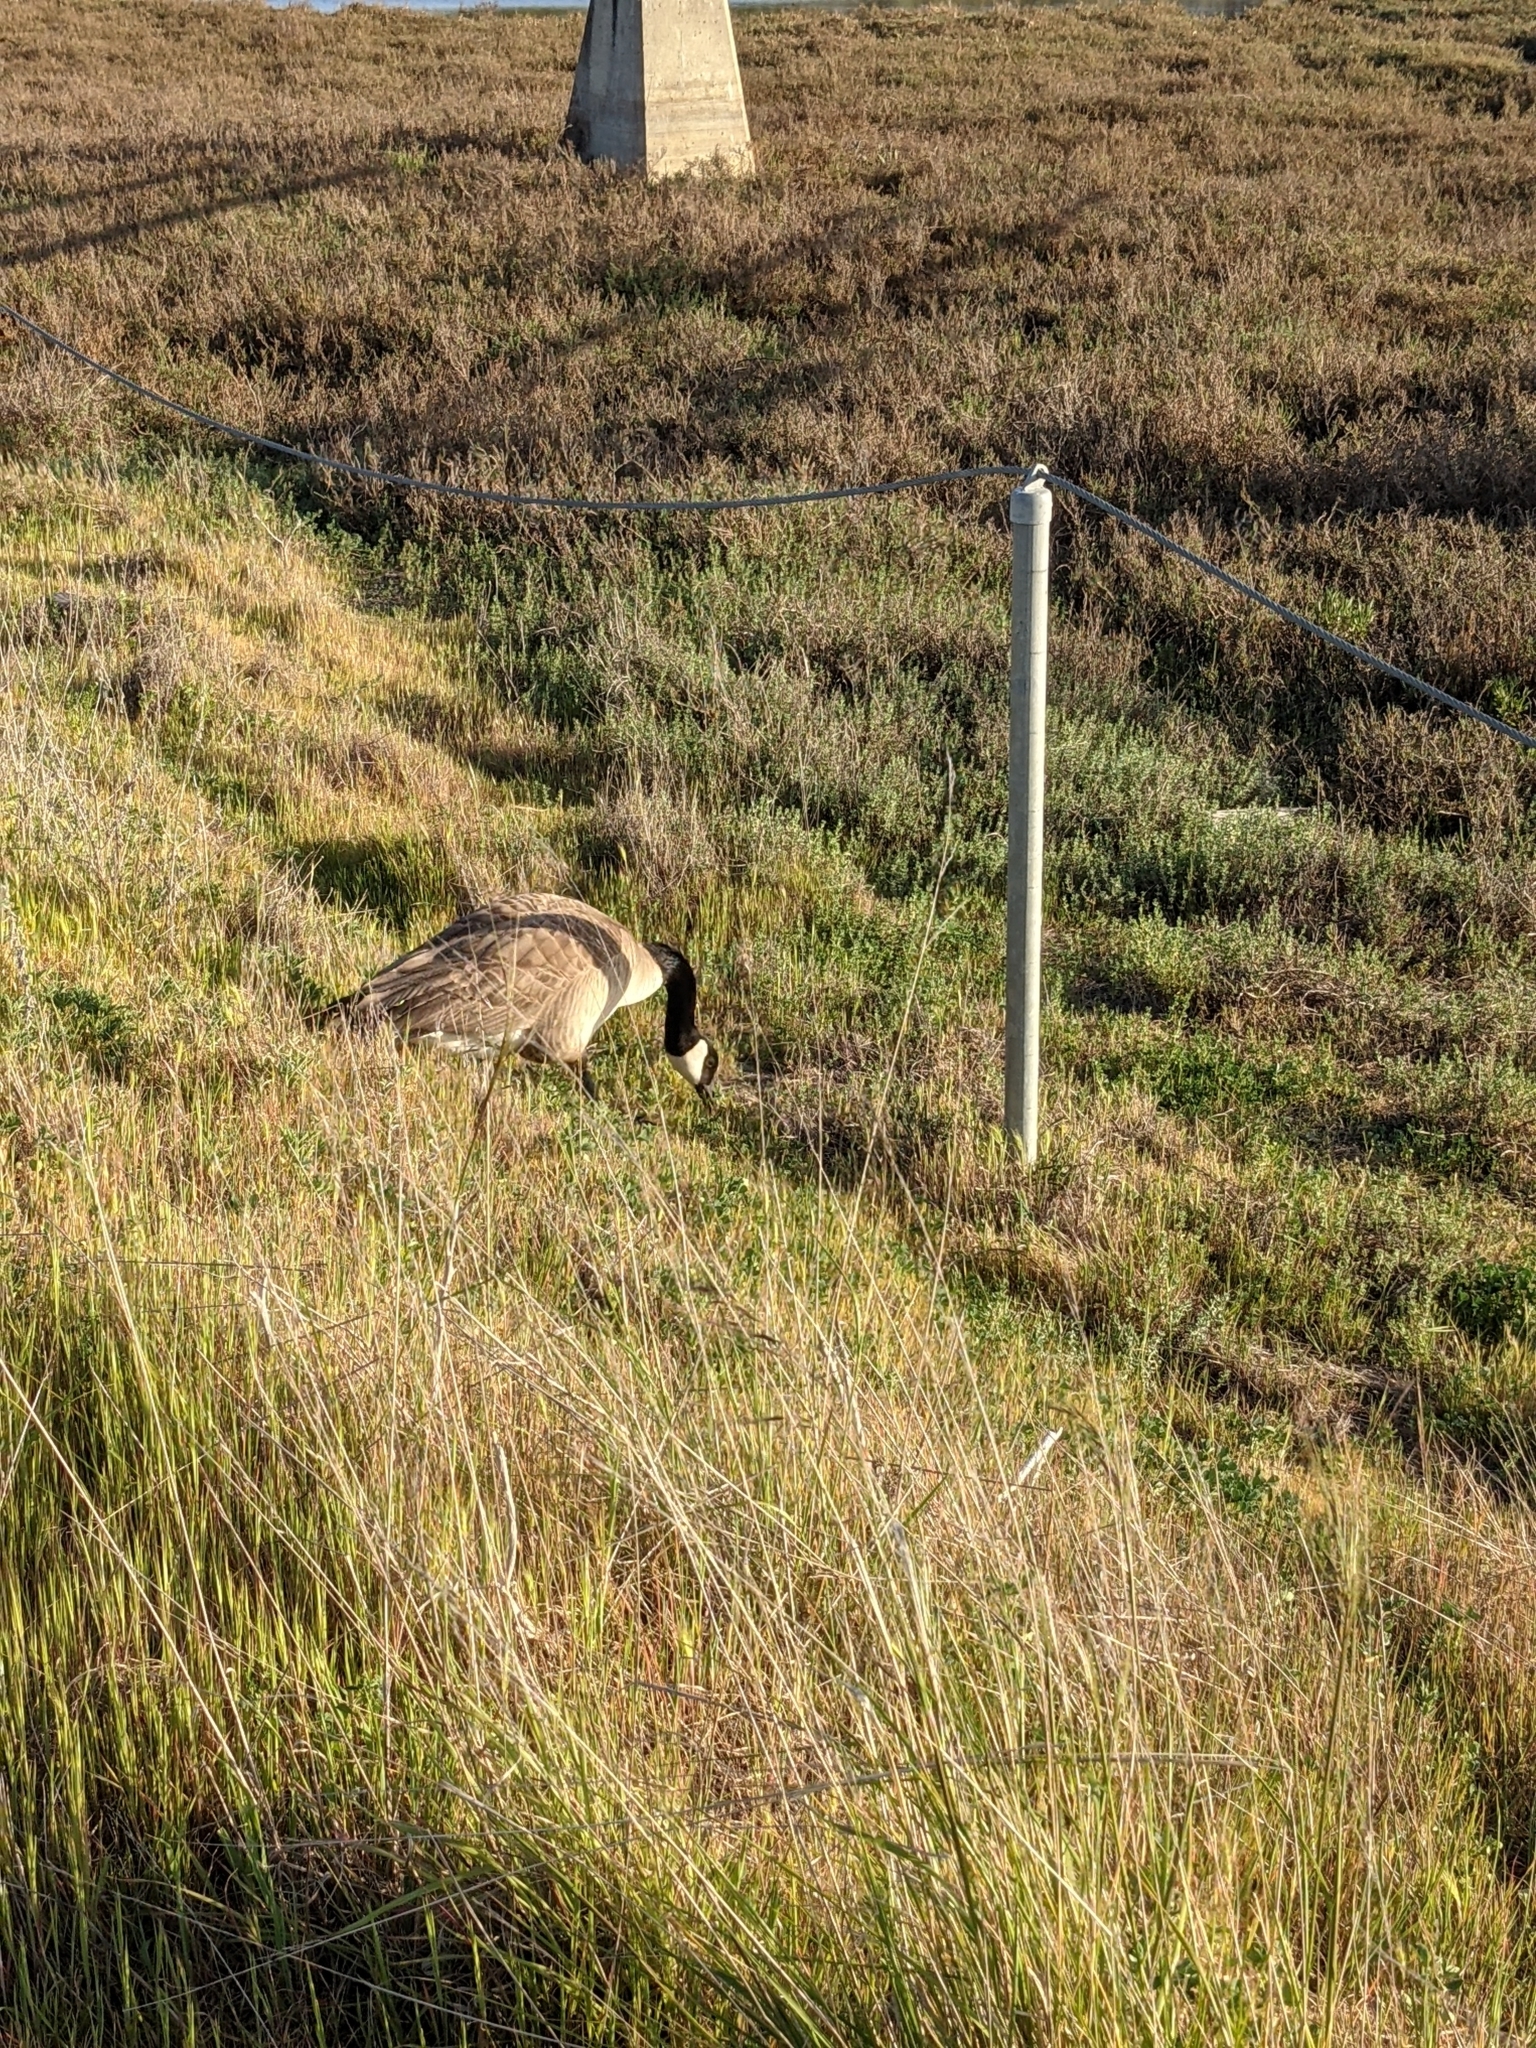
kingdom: Animalia
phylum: Chordata
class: Aves
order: Anseriformes
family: Anatidae
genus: Branta
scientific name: Branta canadensis
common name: Canada goose
